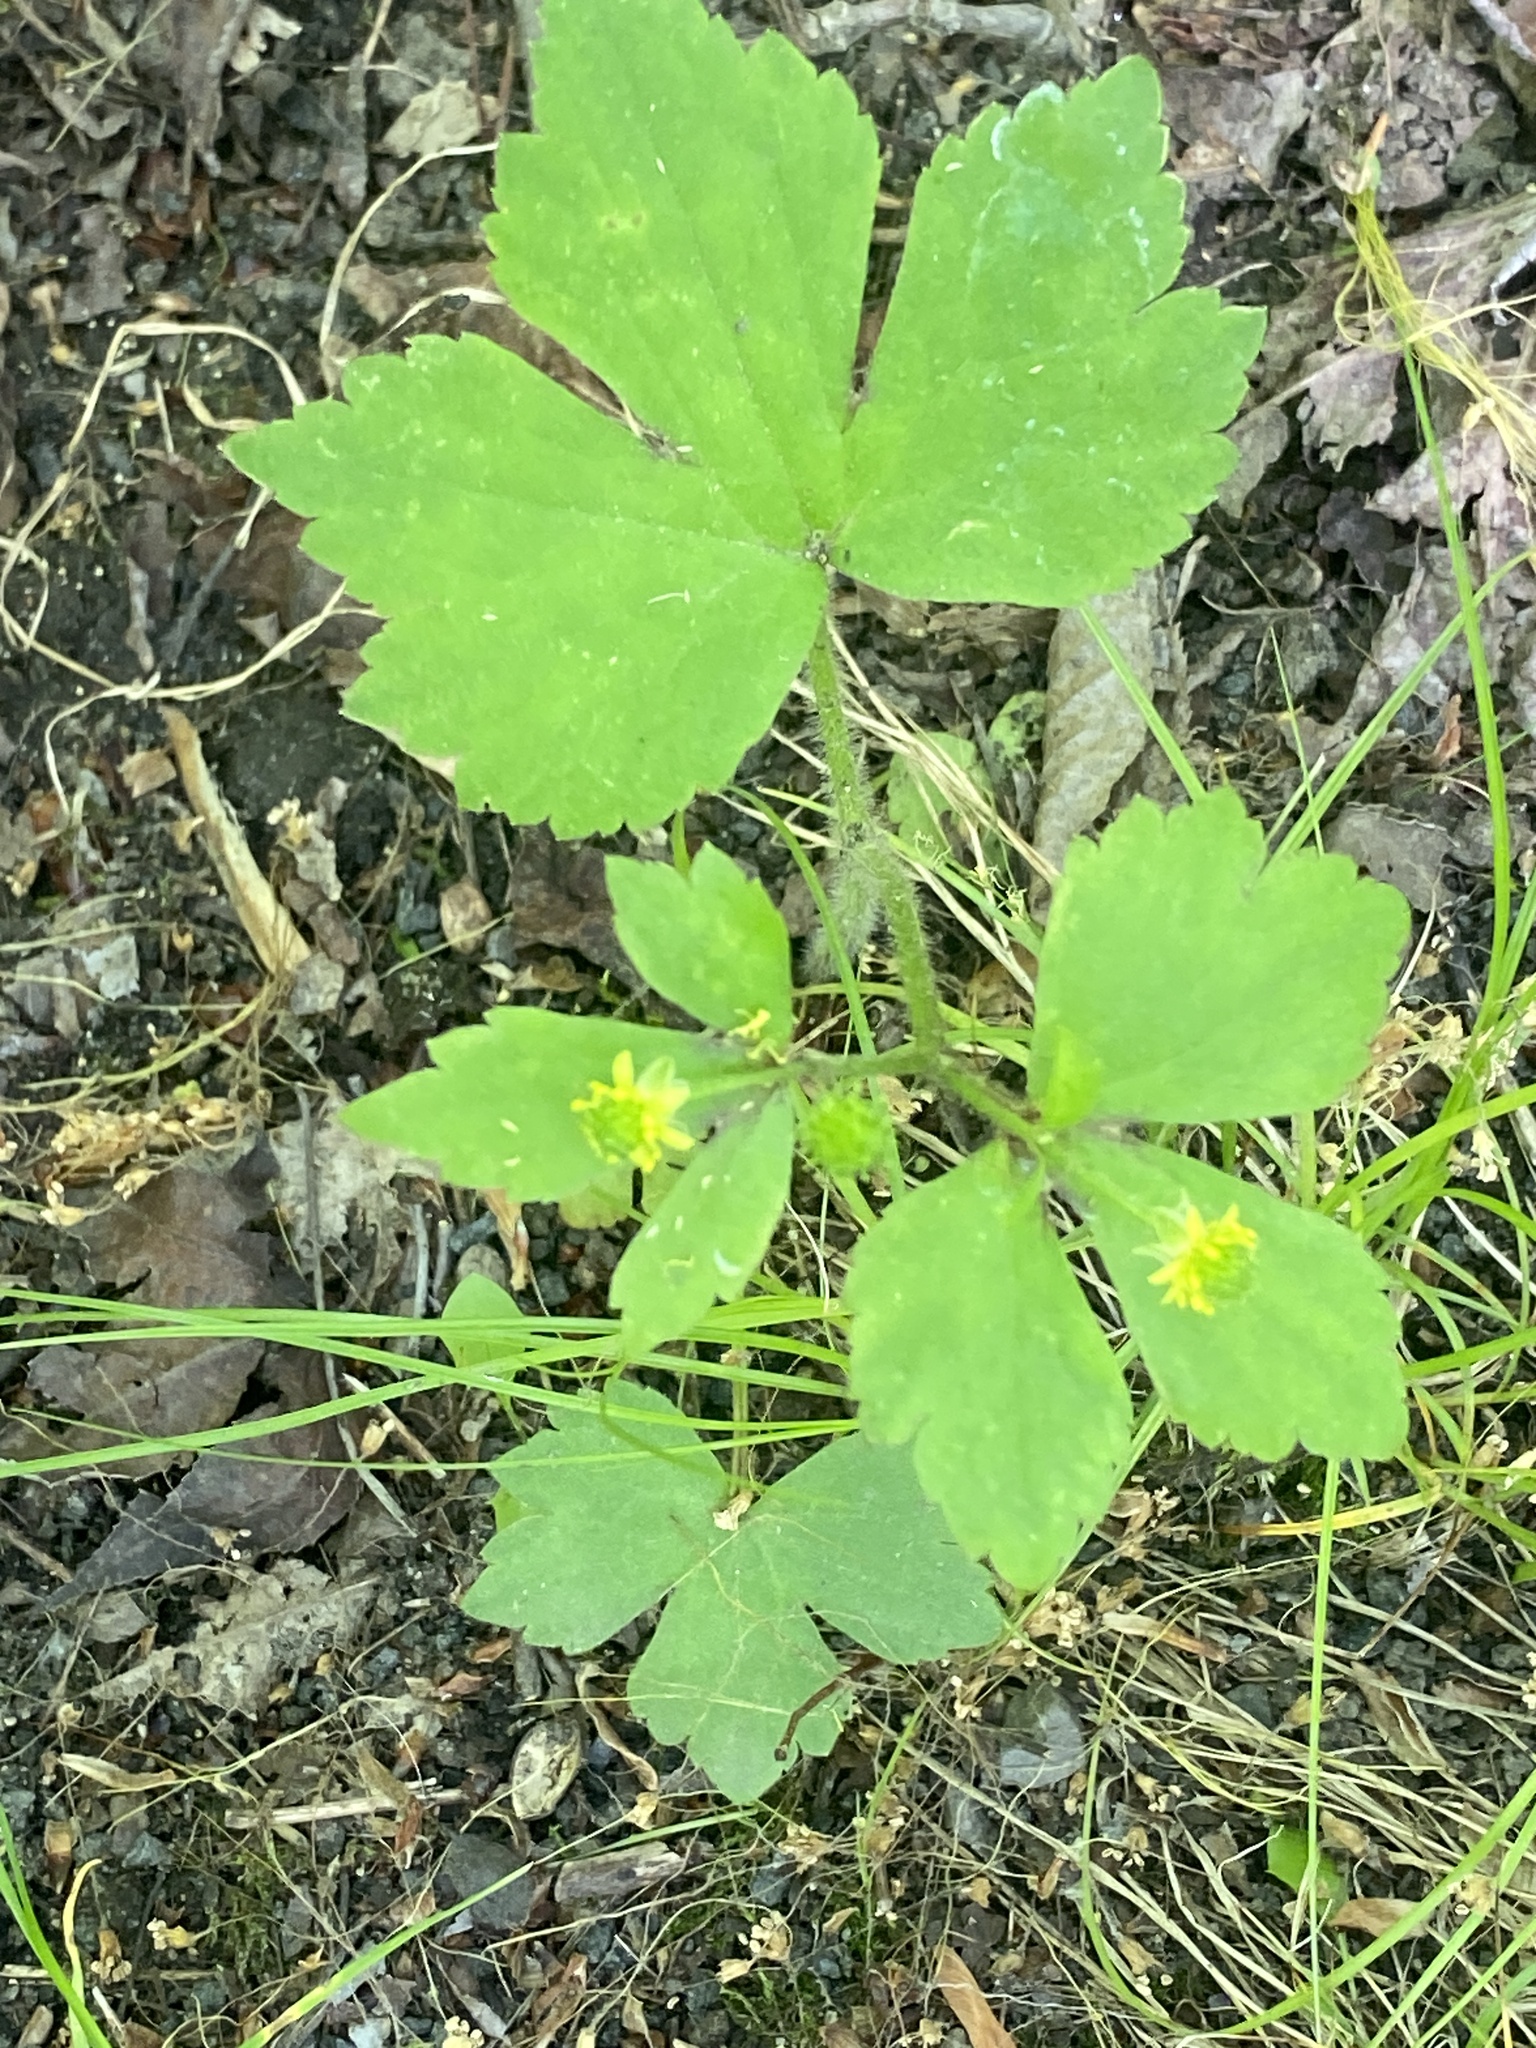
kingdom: Plantae
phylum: Tracheophyta
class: Magnoliopsida
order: Ranunculales
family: Ranunculaceae
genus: Ranunculus
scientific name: Ranunculus recurvatus
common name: Blisterwort
